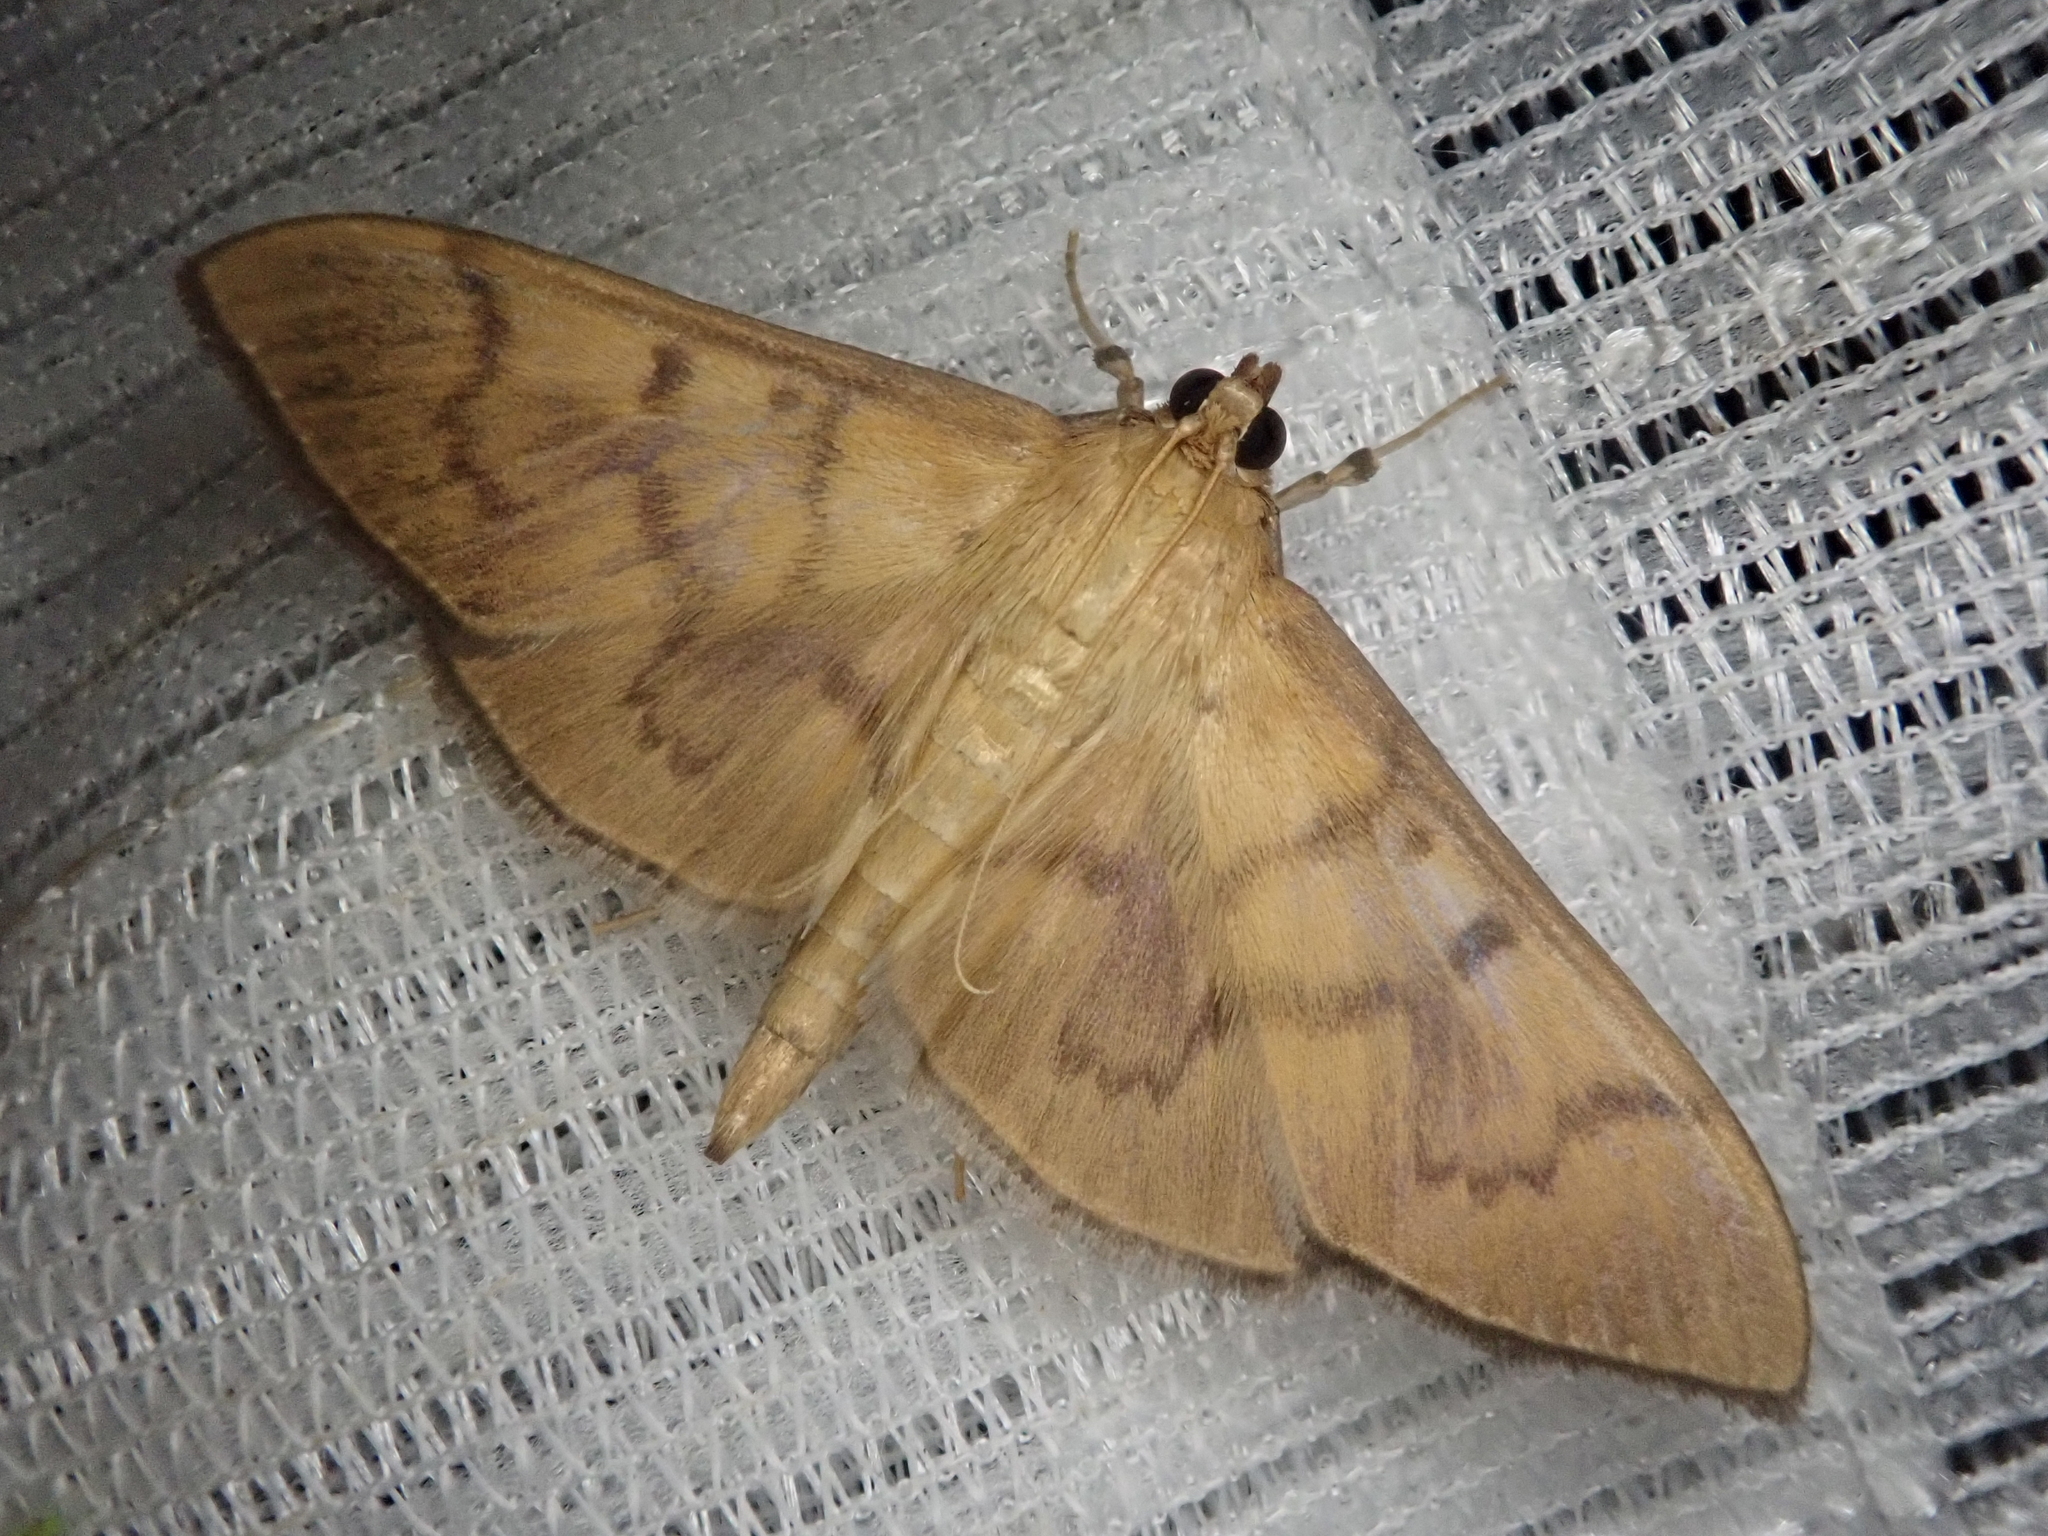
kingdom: Animalia
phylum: Arthropoda
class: Insecta
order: Lepidoptera
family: Crambidae
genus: Pleuroptya
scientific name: Pleuroptya harutai
